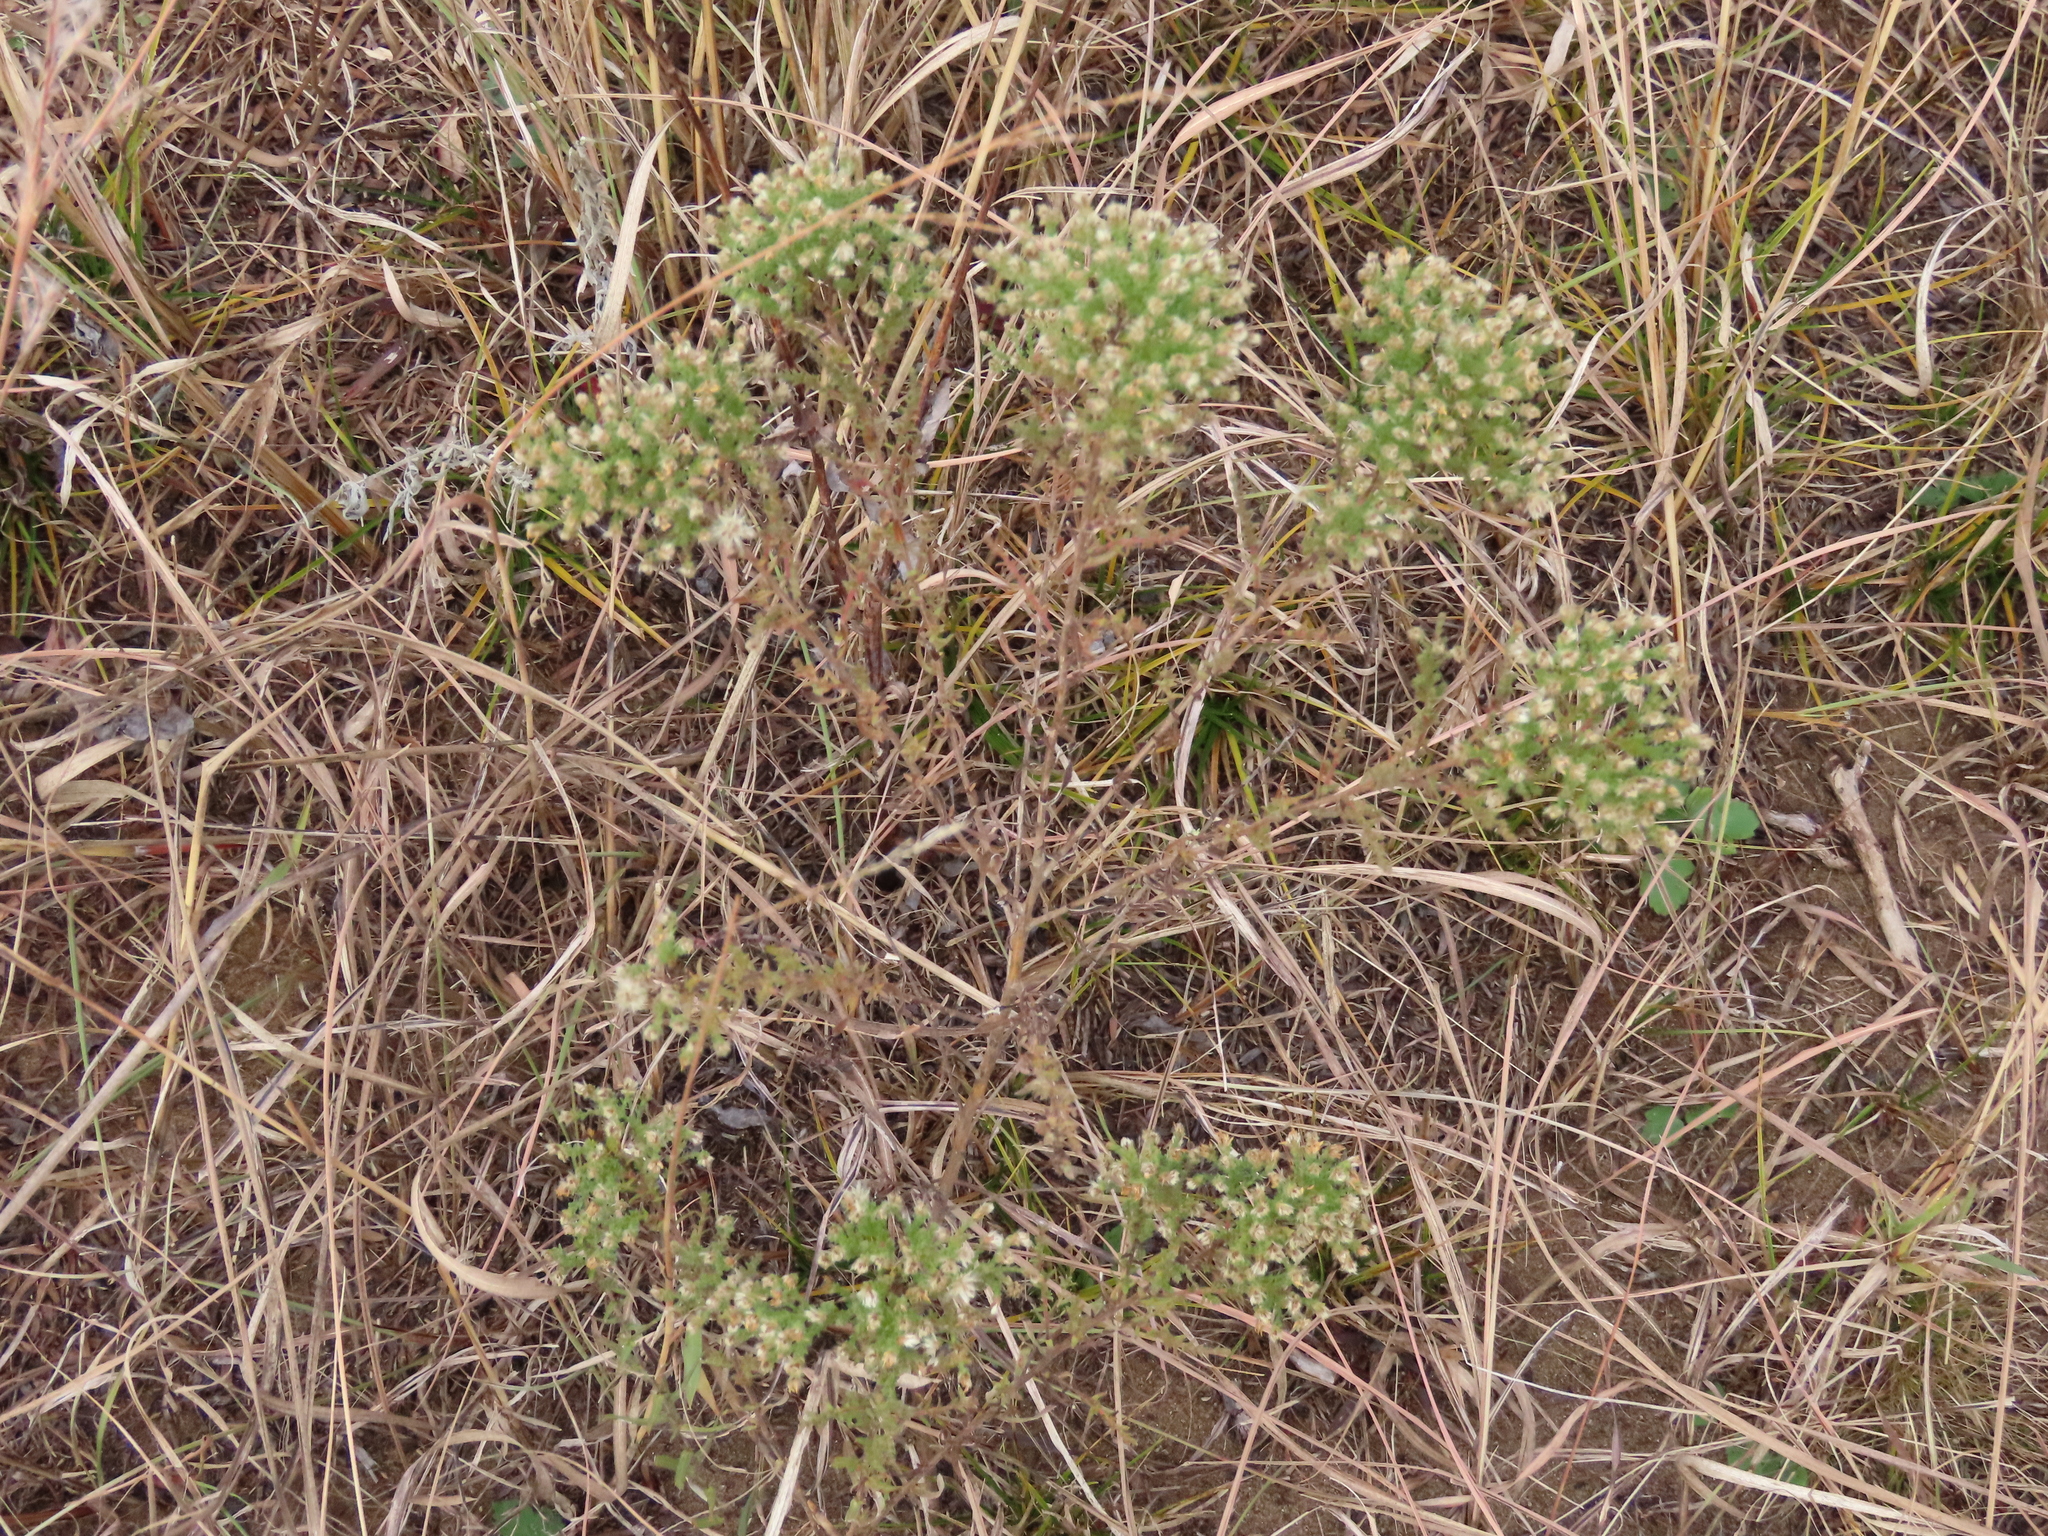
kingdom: Plantae
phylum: Tracheophyta
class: Magnoliopsida
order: Asterales
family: Asteraceae
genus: Symphyotrichum
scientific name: Symphyotrichum ericoides
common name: Heath aster
